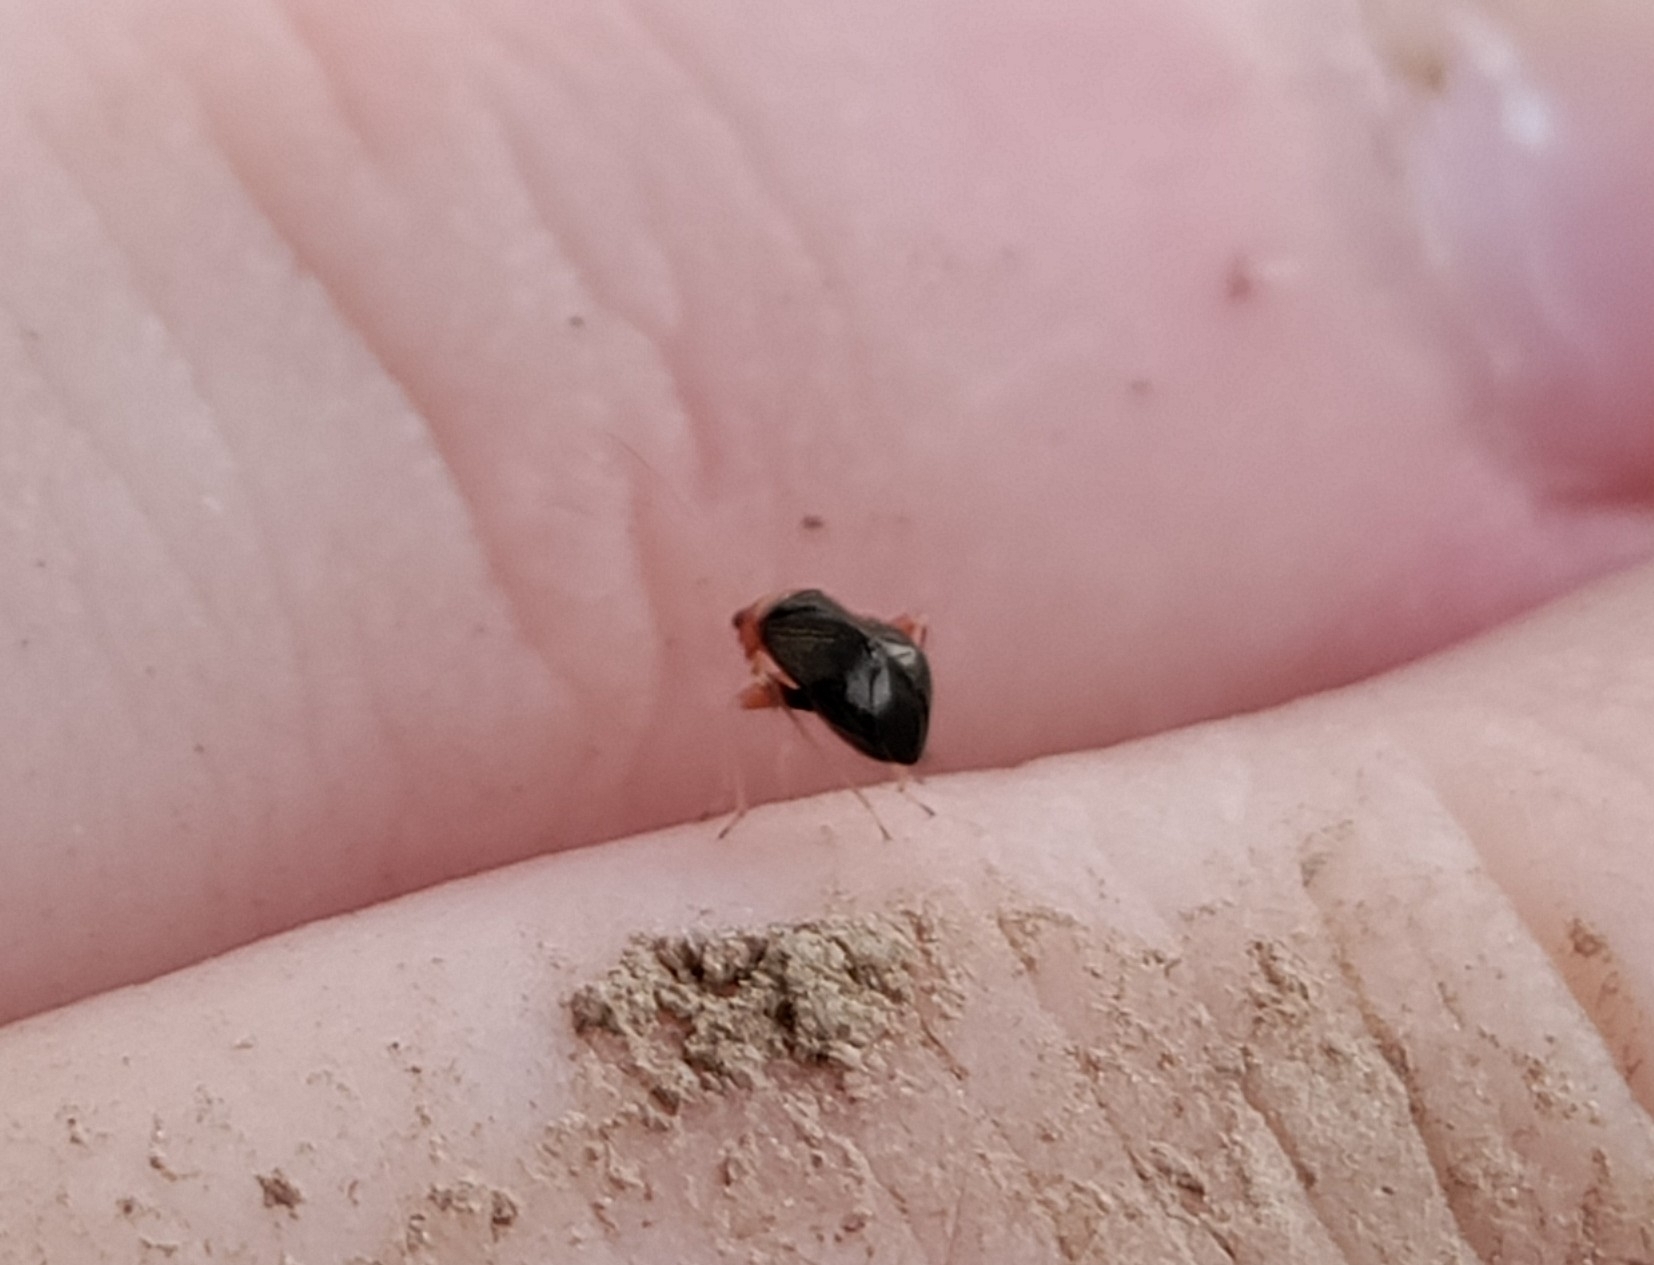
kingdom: Animalia
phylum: Arthropoda
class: Insecta
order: Hemiptera
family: Miridae
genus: Halticus
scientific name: Halticus luteicollis
